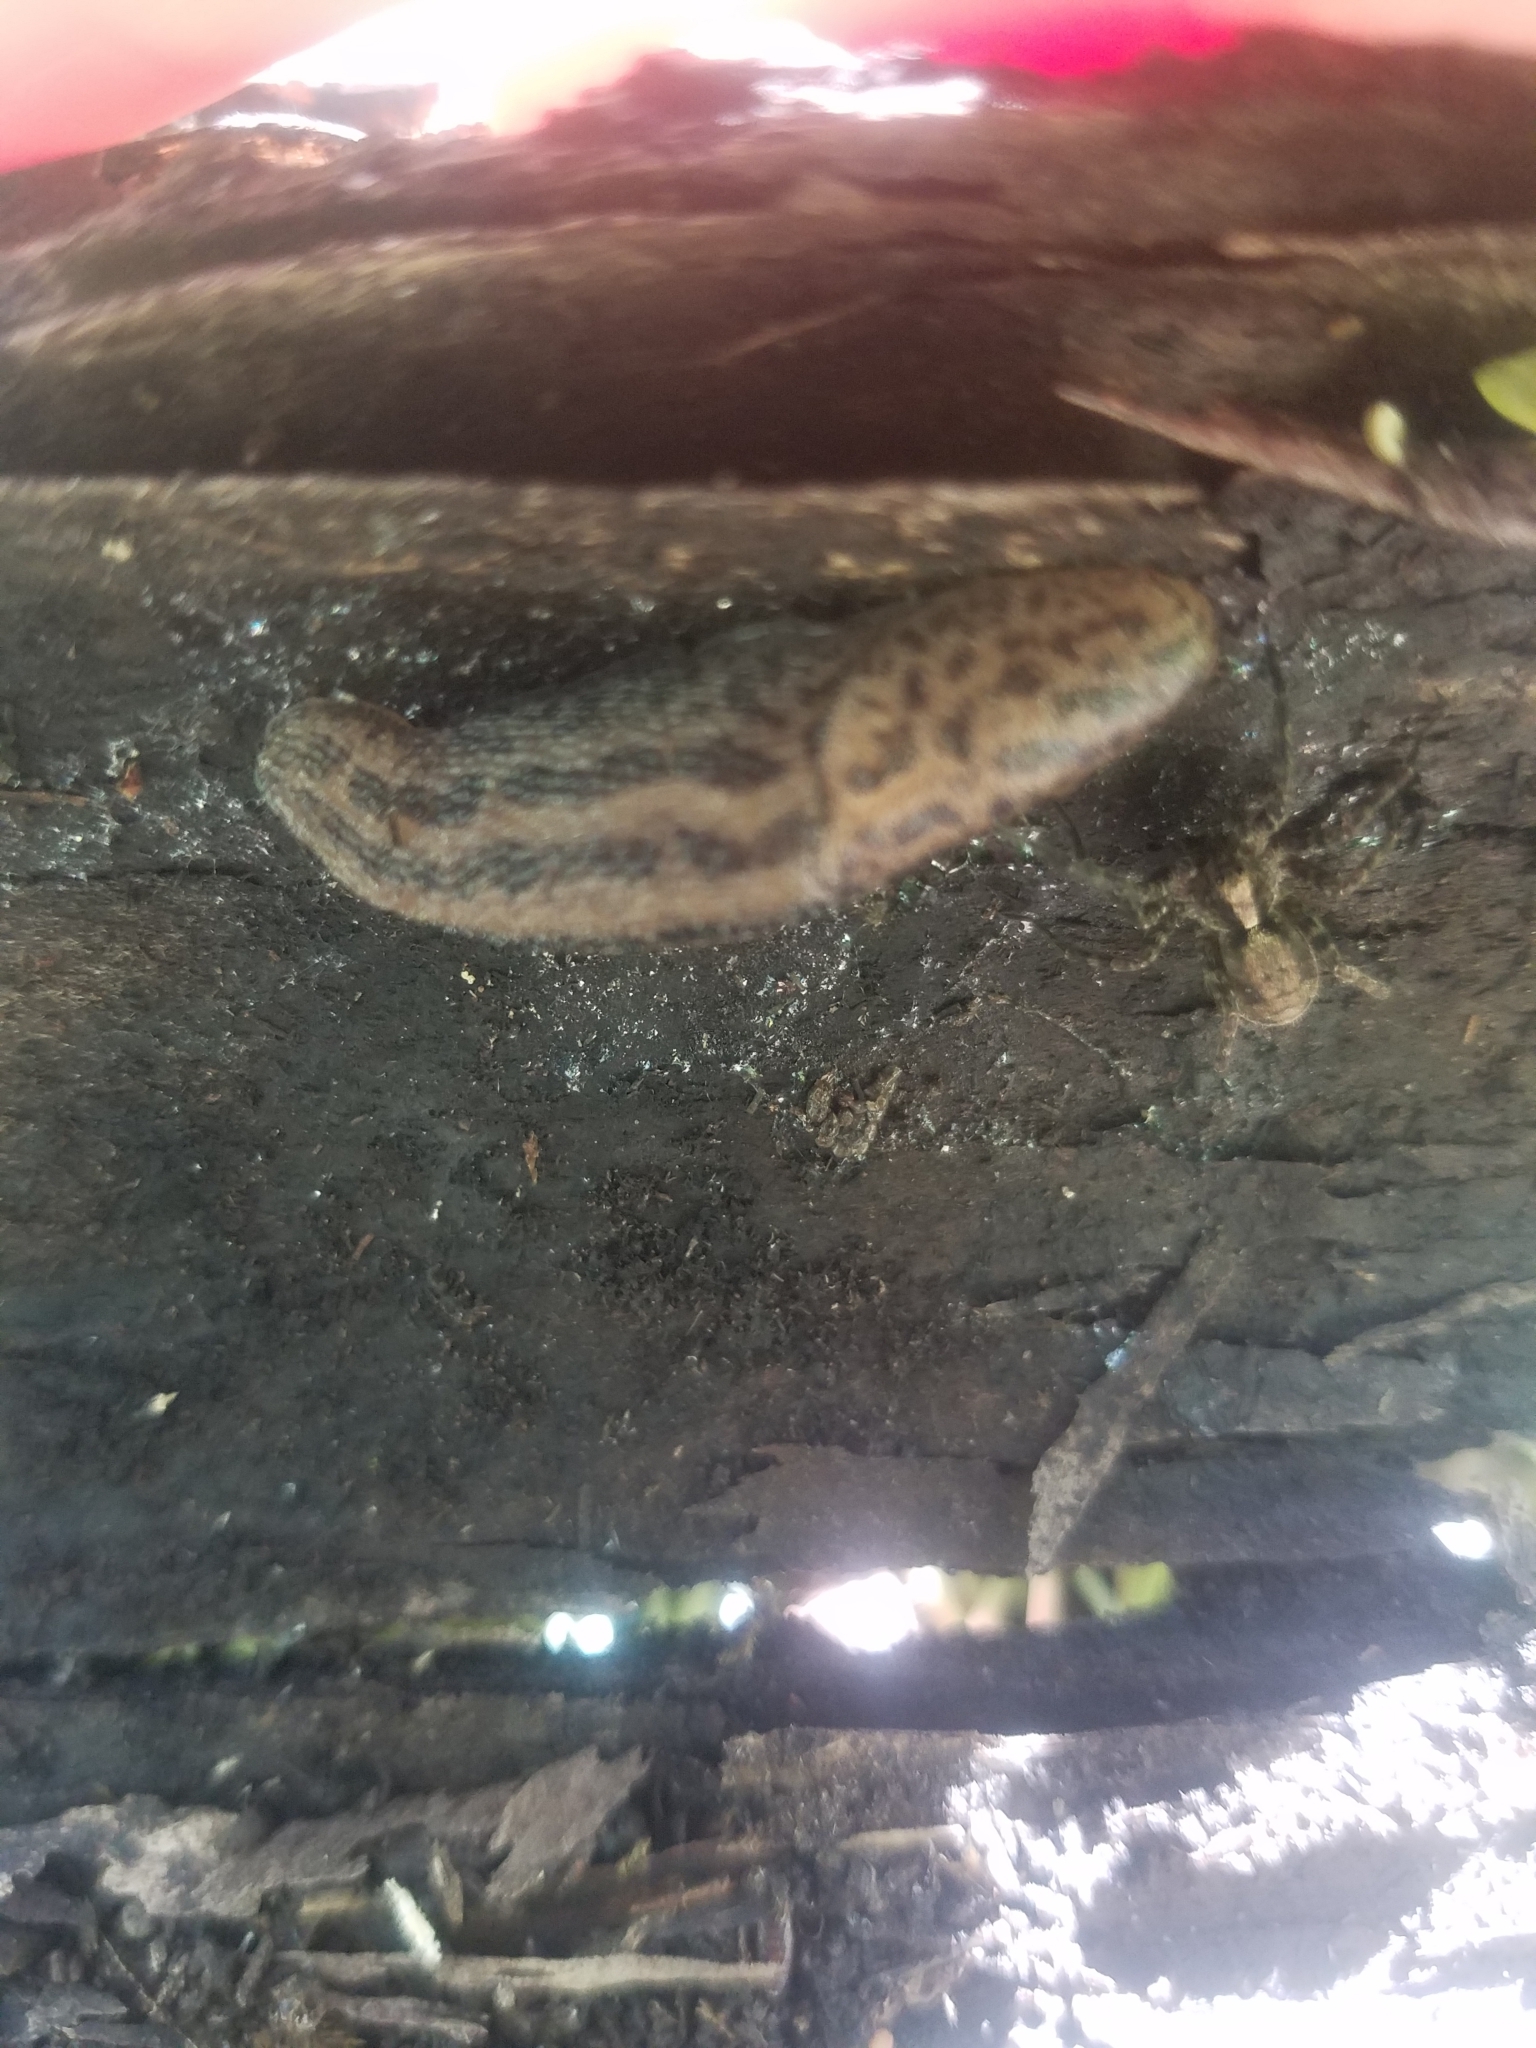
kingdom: Animalia
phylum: Mollusca
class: Gastropoda
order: Stylommatophora
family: Limacidae
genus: Limax
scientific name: Limax maximus
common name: Great grey slug
